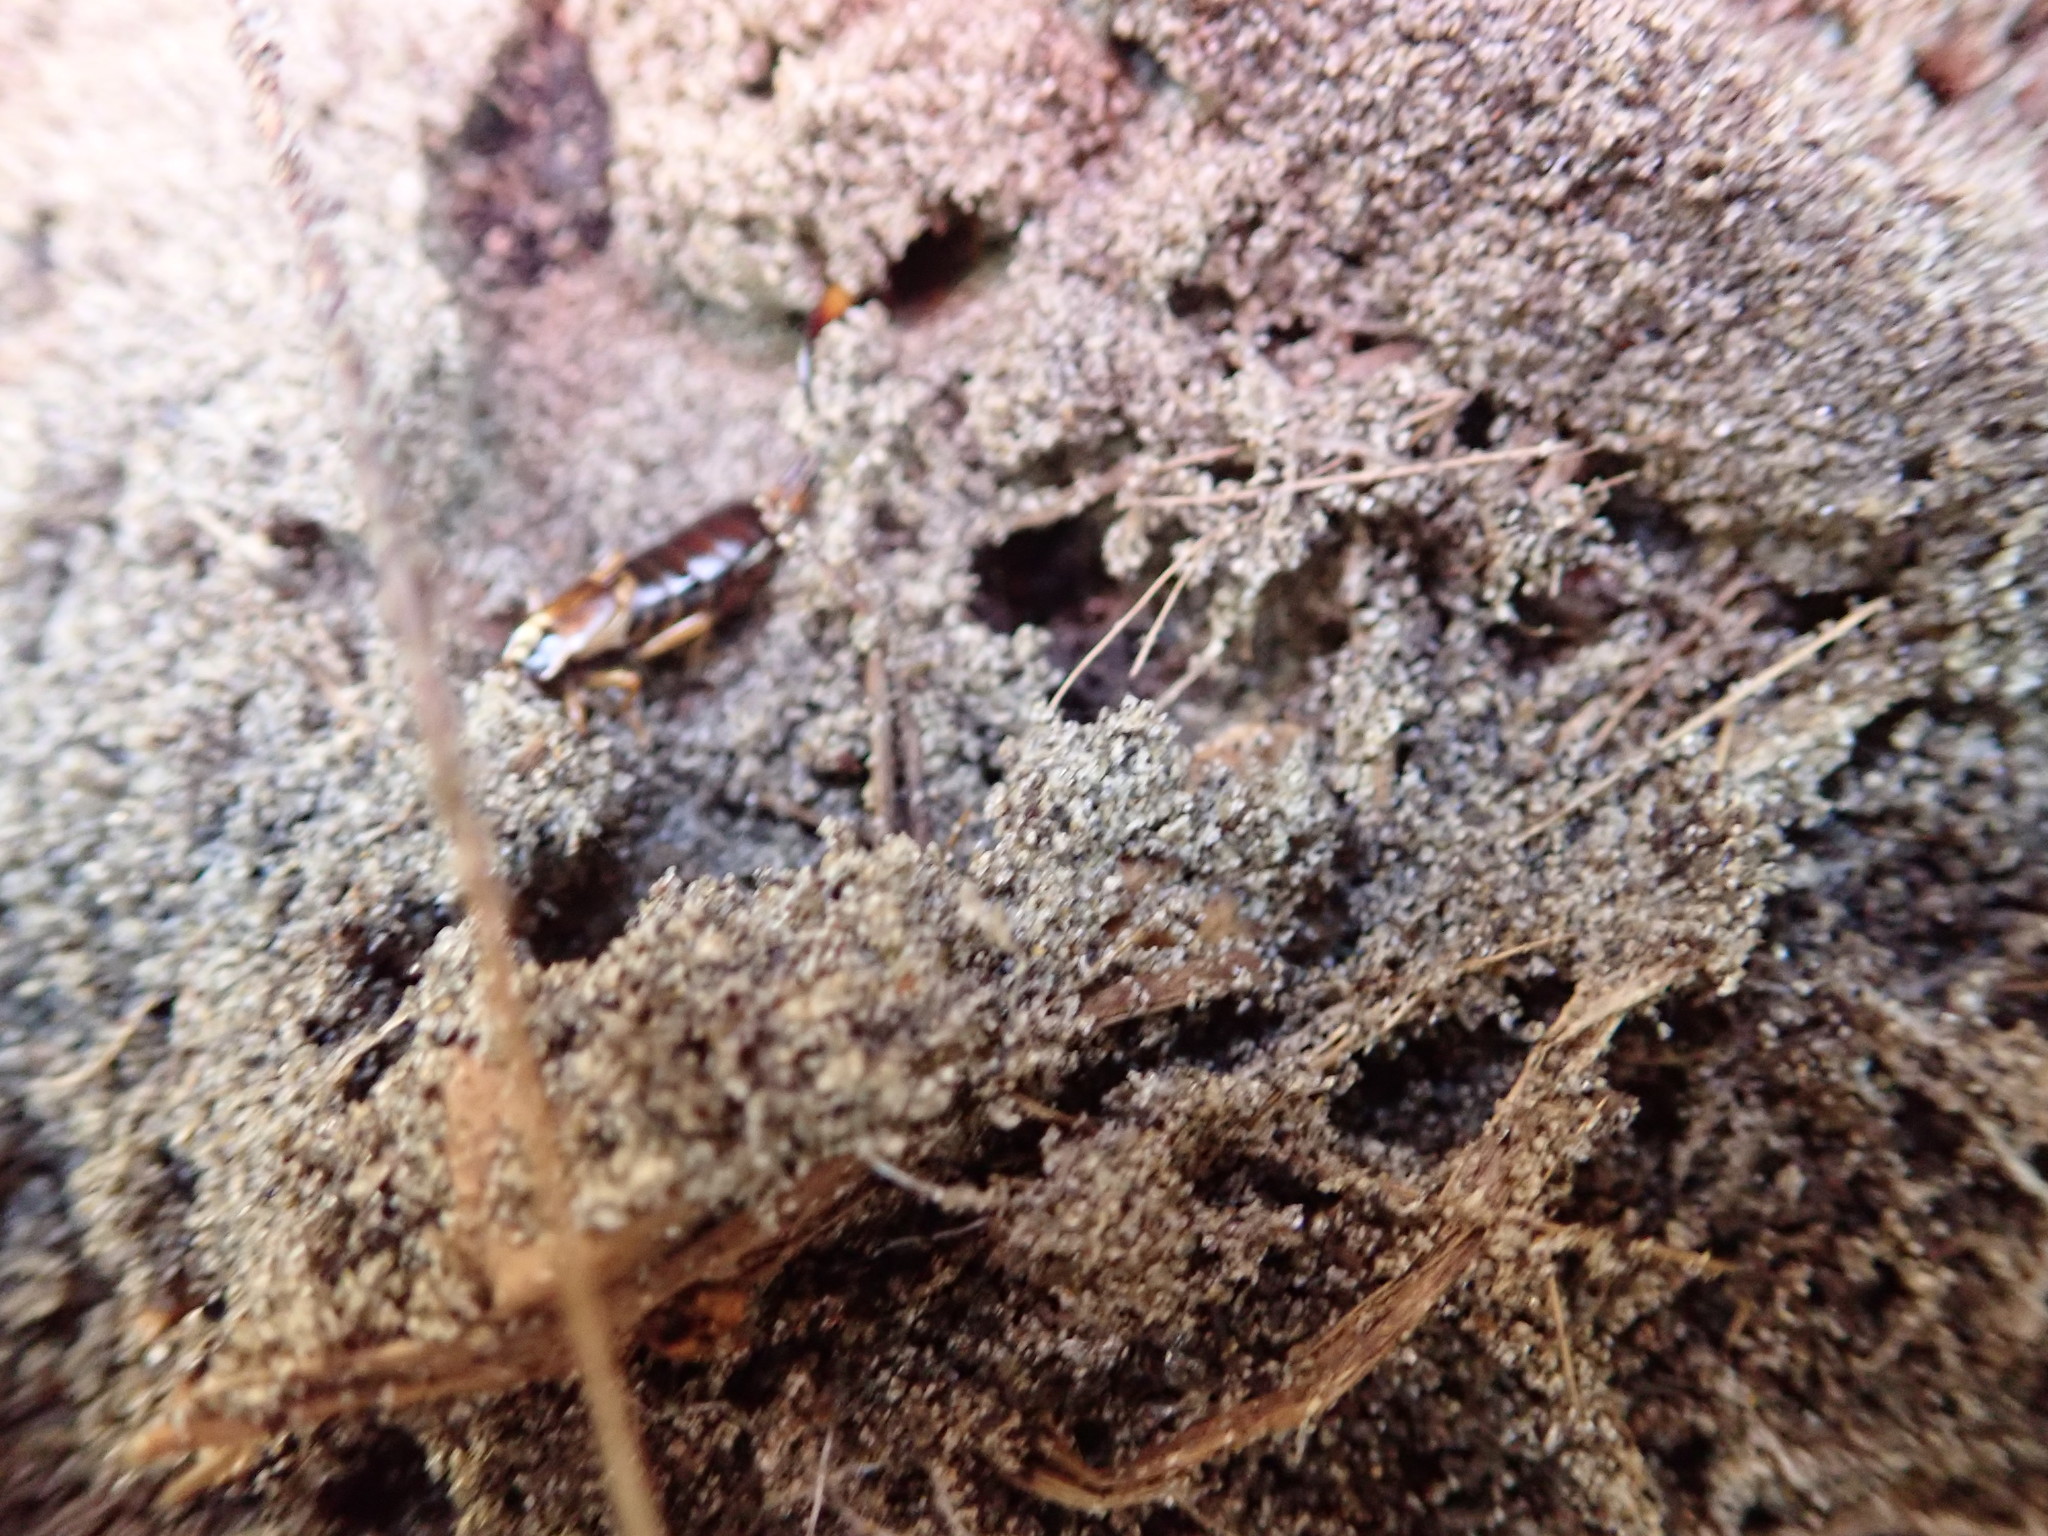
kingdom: Animalia
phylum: Arthropoda
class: Insecta
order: Dermaptera
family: Forficulidae
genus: Forficula
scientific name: Forficula
